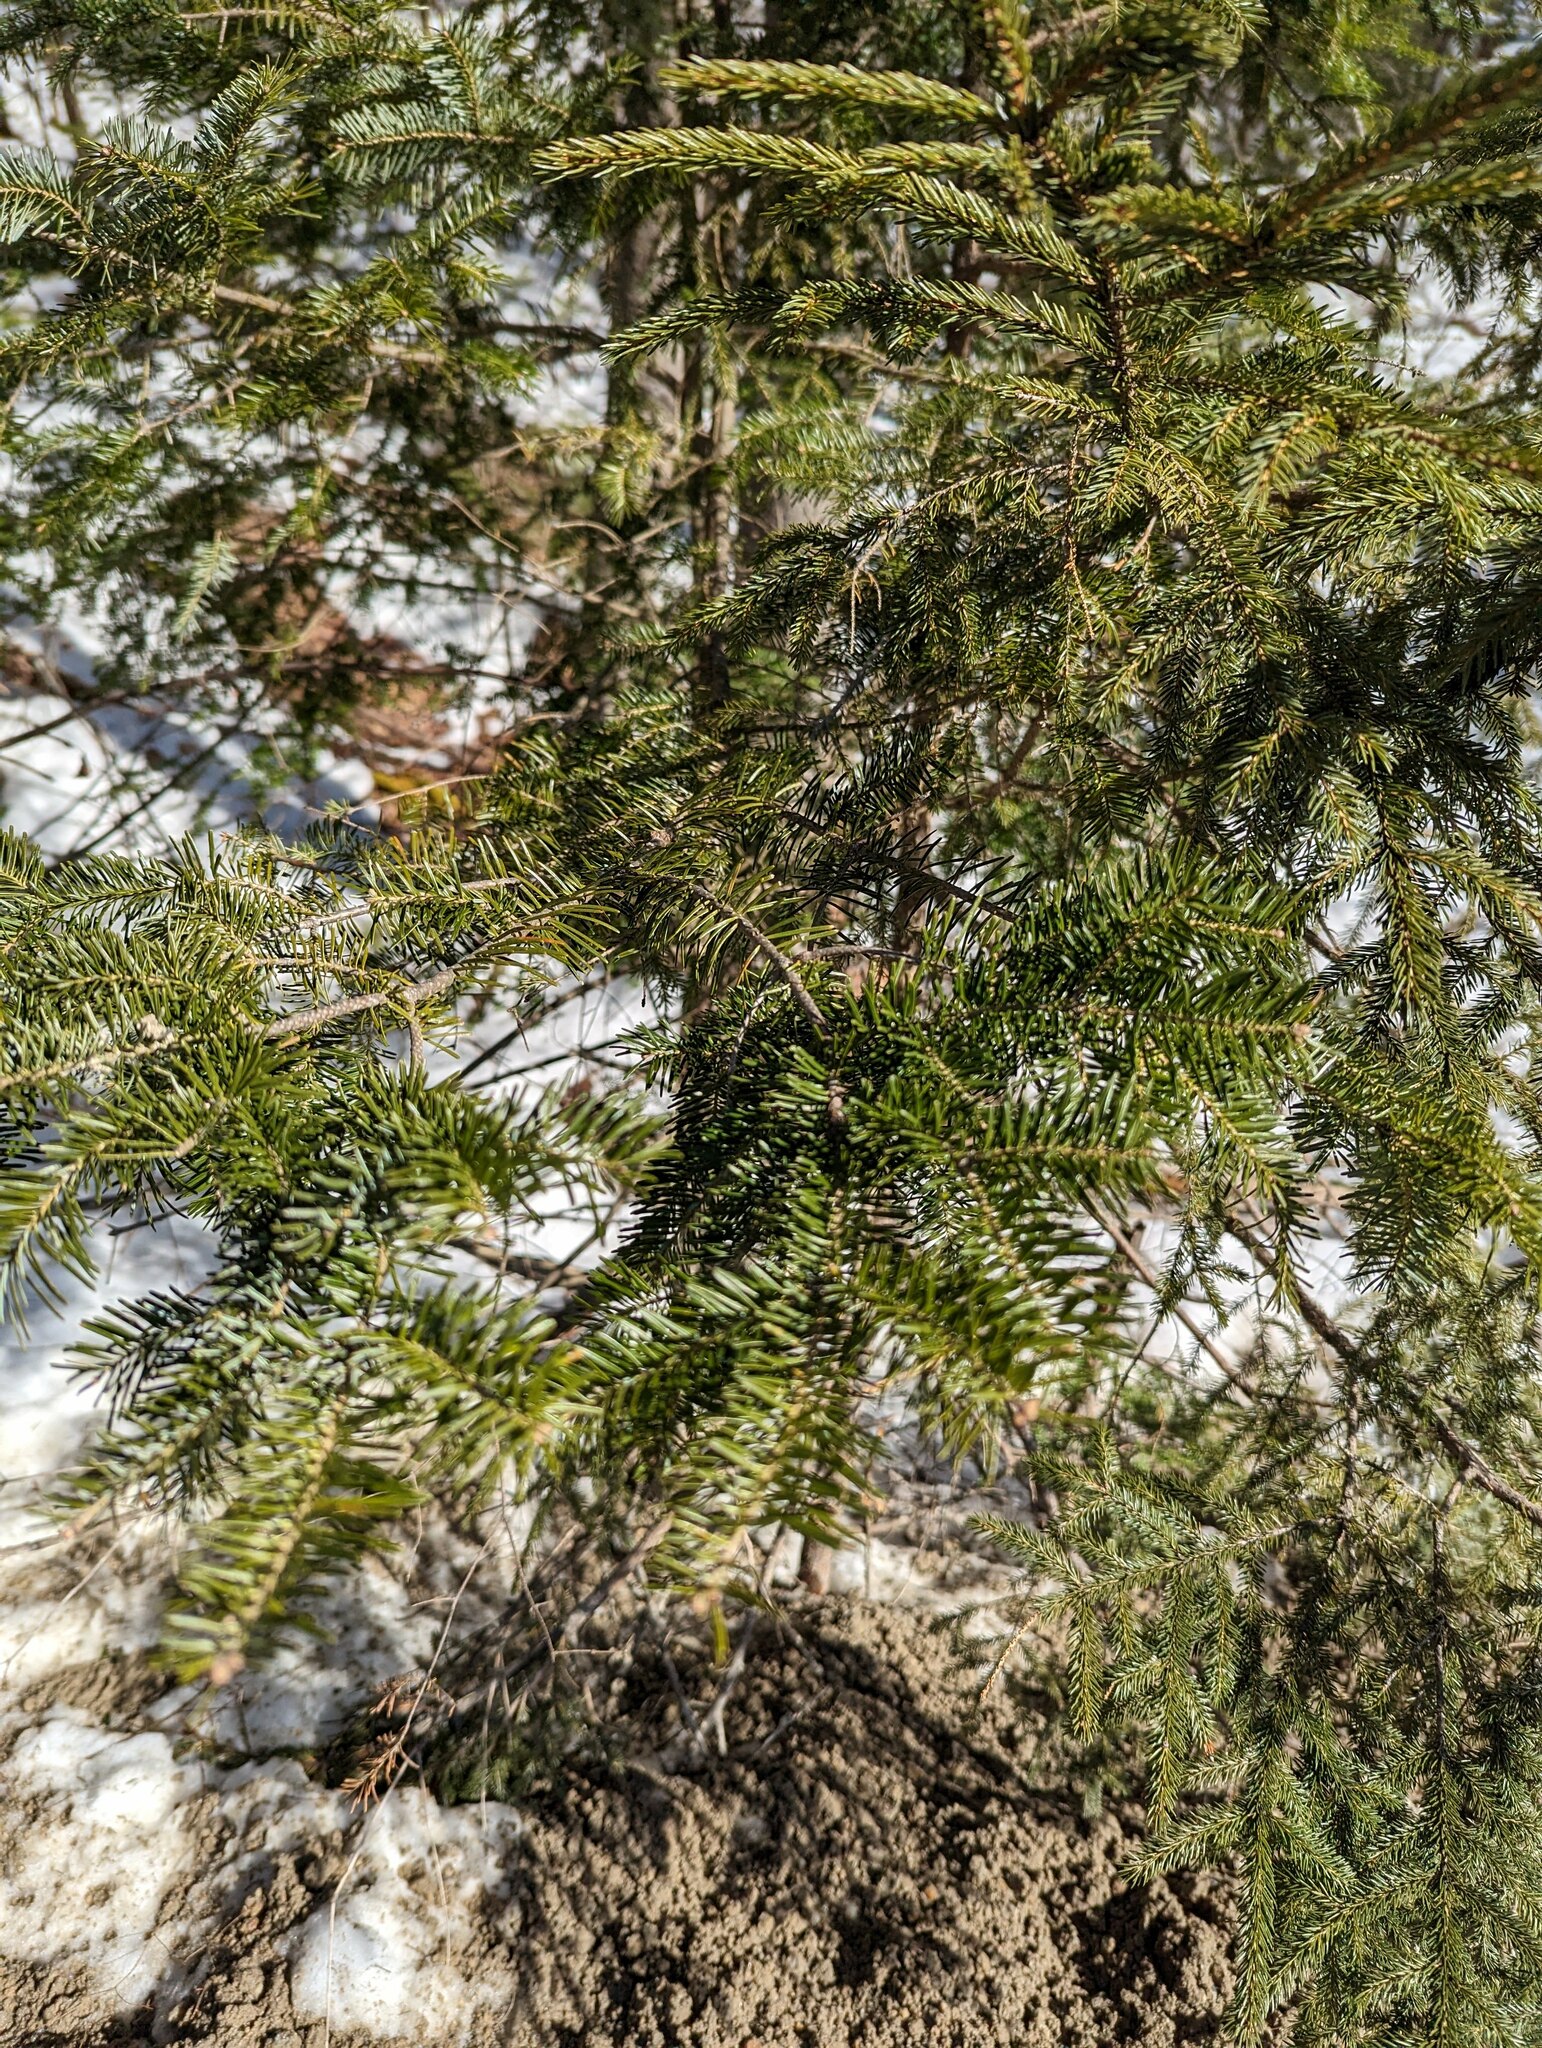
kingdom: Plantae
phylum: Tracheophyta
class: Pinopsida
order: Pinales
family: Pinaceae
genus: Abies
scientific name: Abies balsamea
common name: Balsam fir
